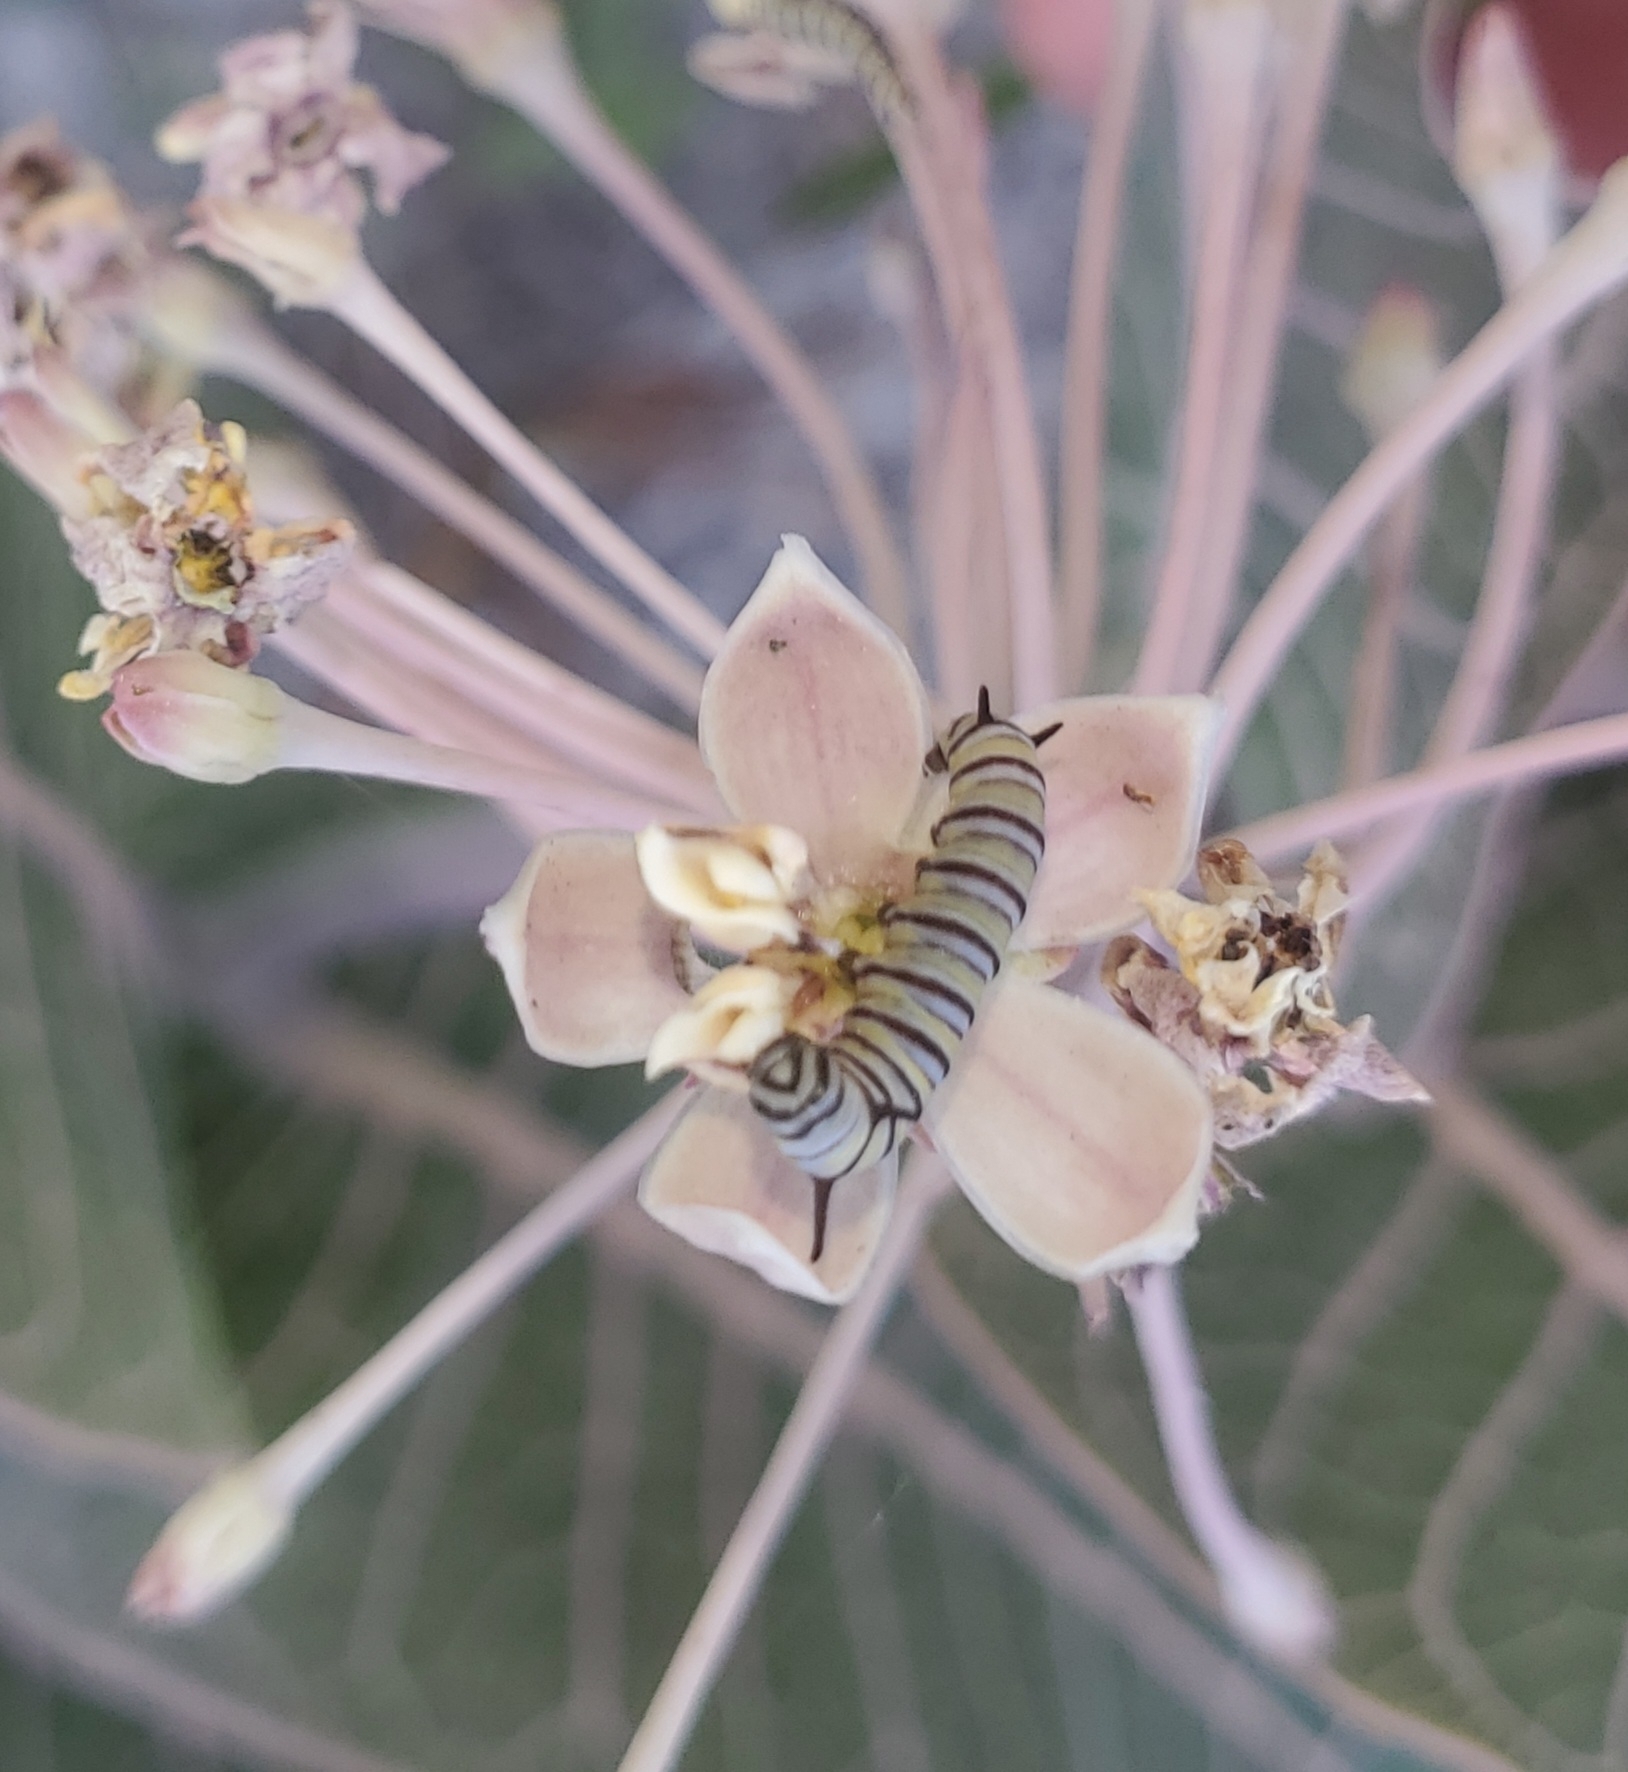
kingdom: Animalia
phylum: Arthropoda
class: Insecta
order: Lepidoptera
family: Nymphalidae
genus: Danaus
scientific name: Danaus plexippus
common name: Monarch
